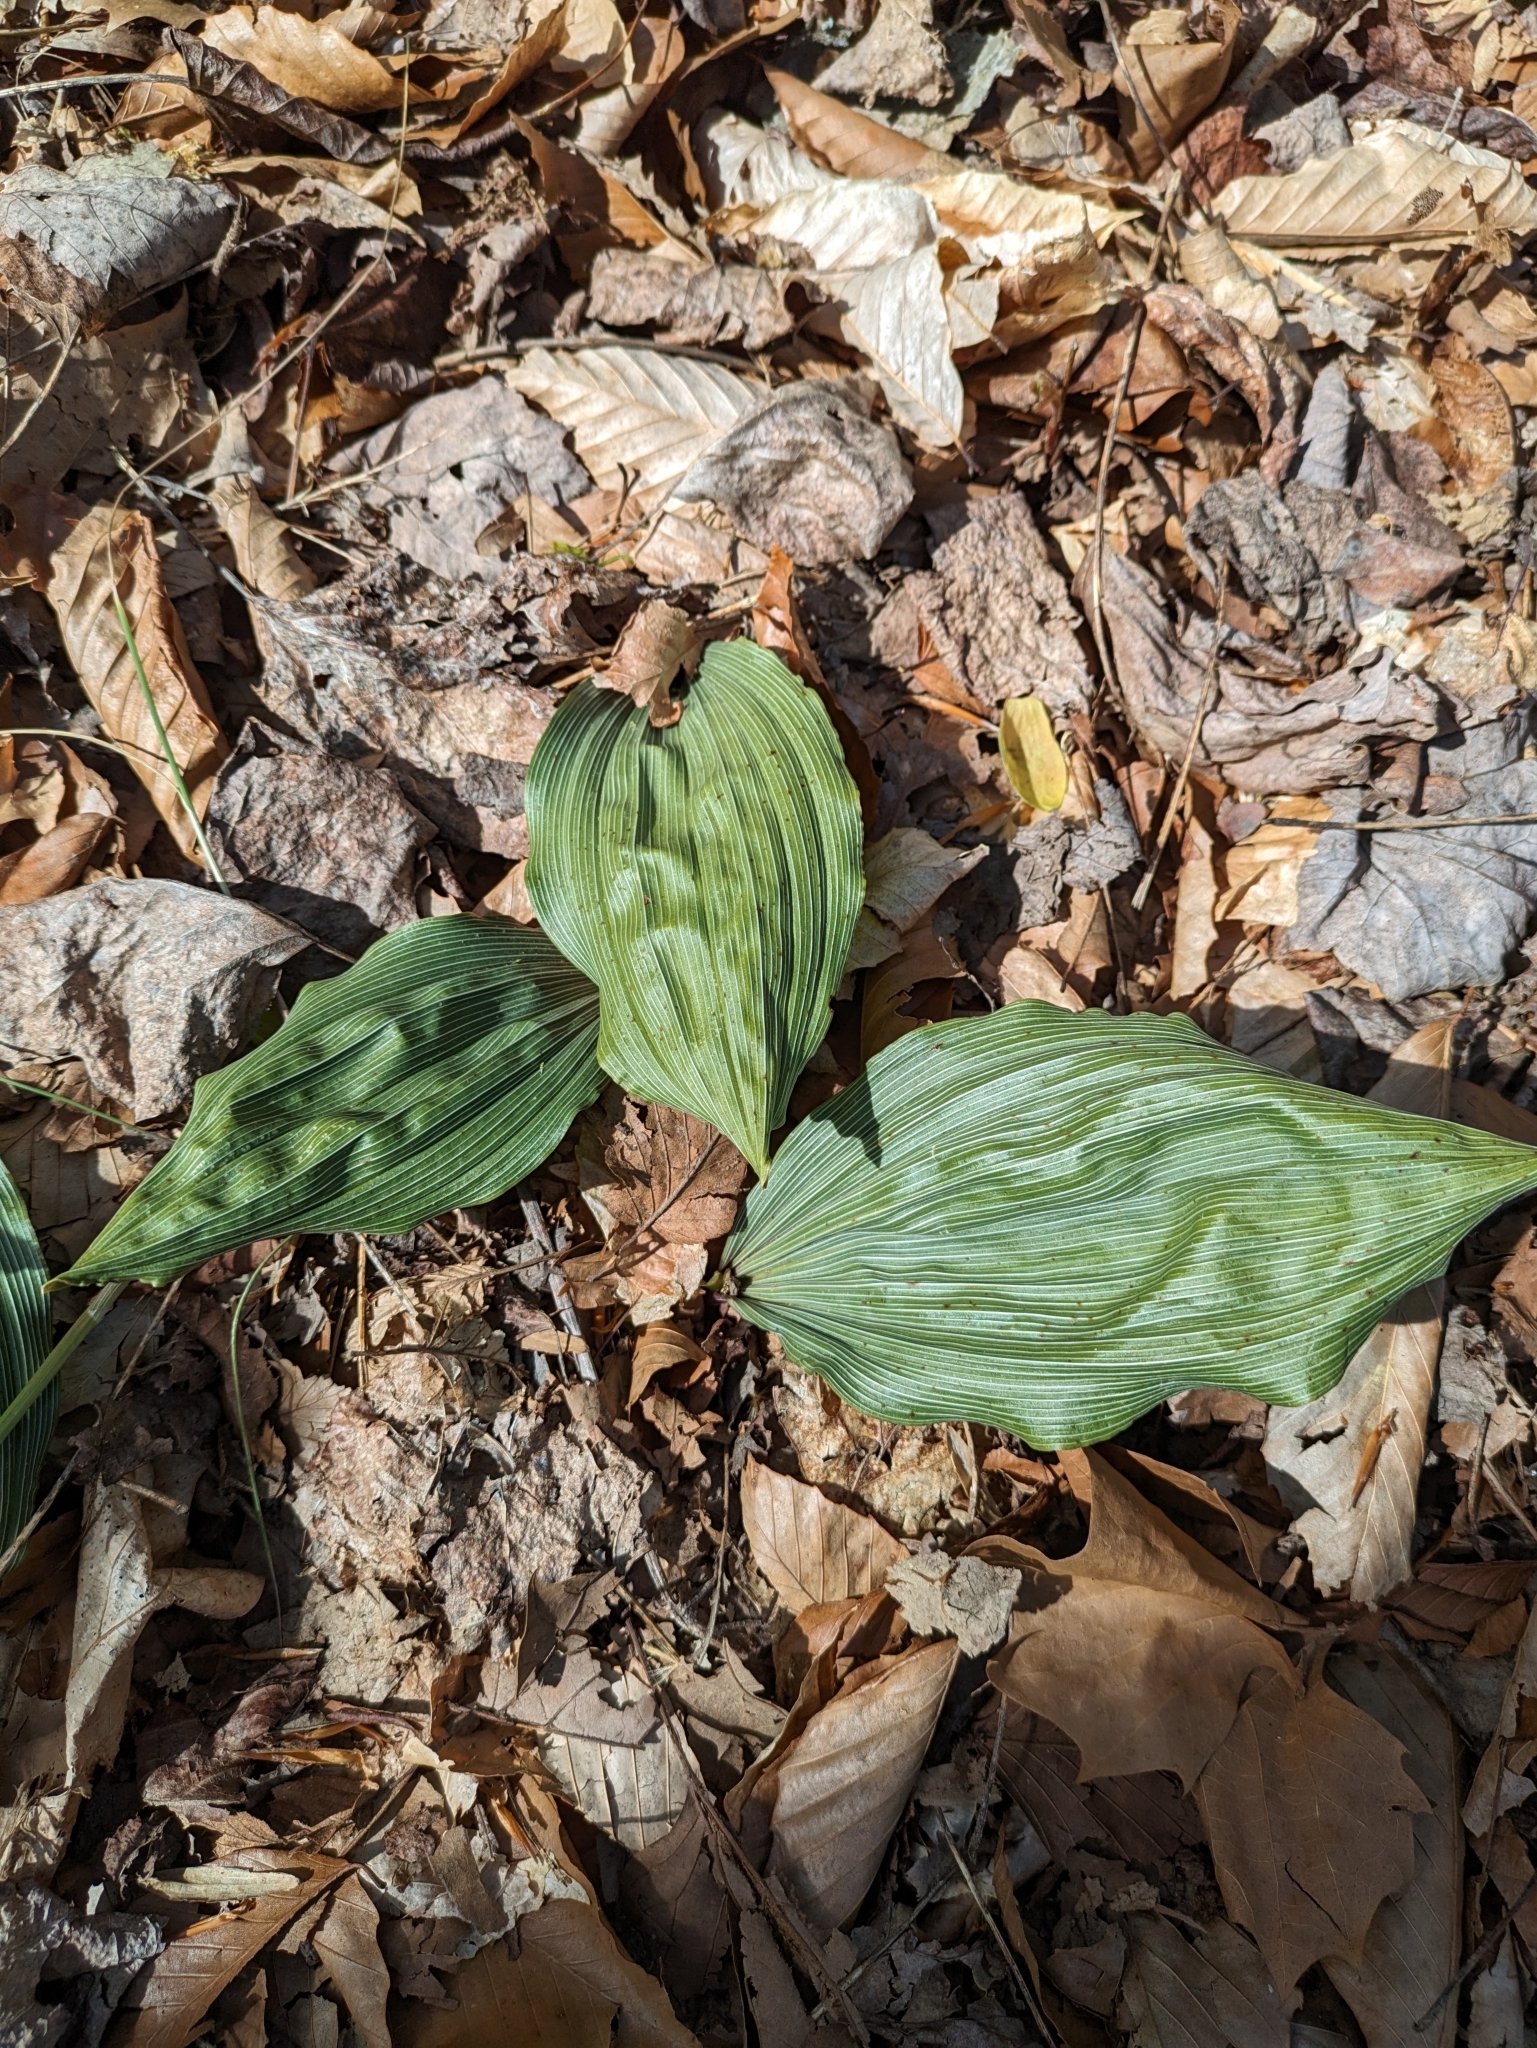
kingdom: Plantae
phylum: Tracheophyta
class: Liliopsida
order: Asparagales
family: Orchidaceae
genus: Aplectrum
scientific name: Aplectrum hyemale
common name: Adam-and-eve
